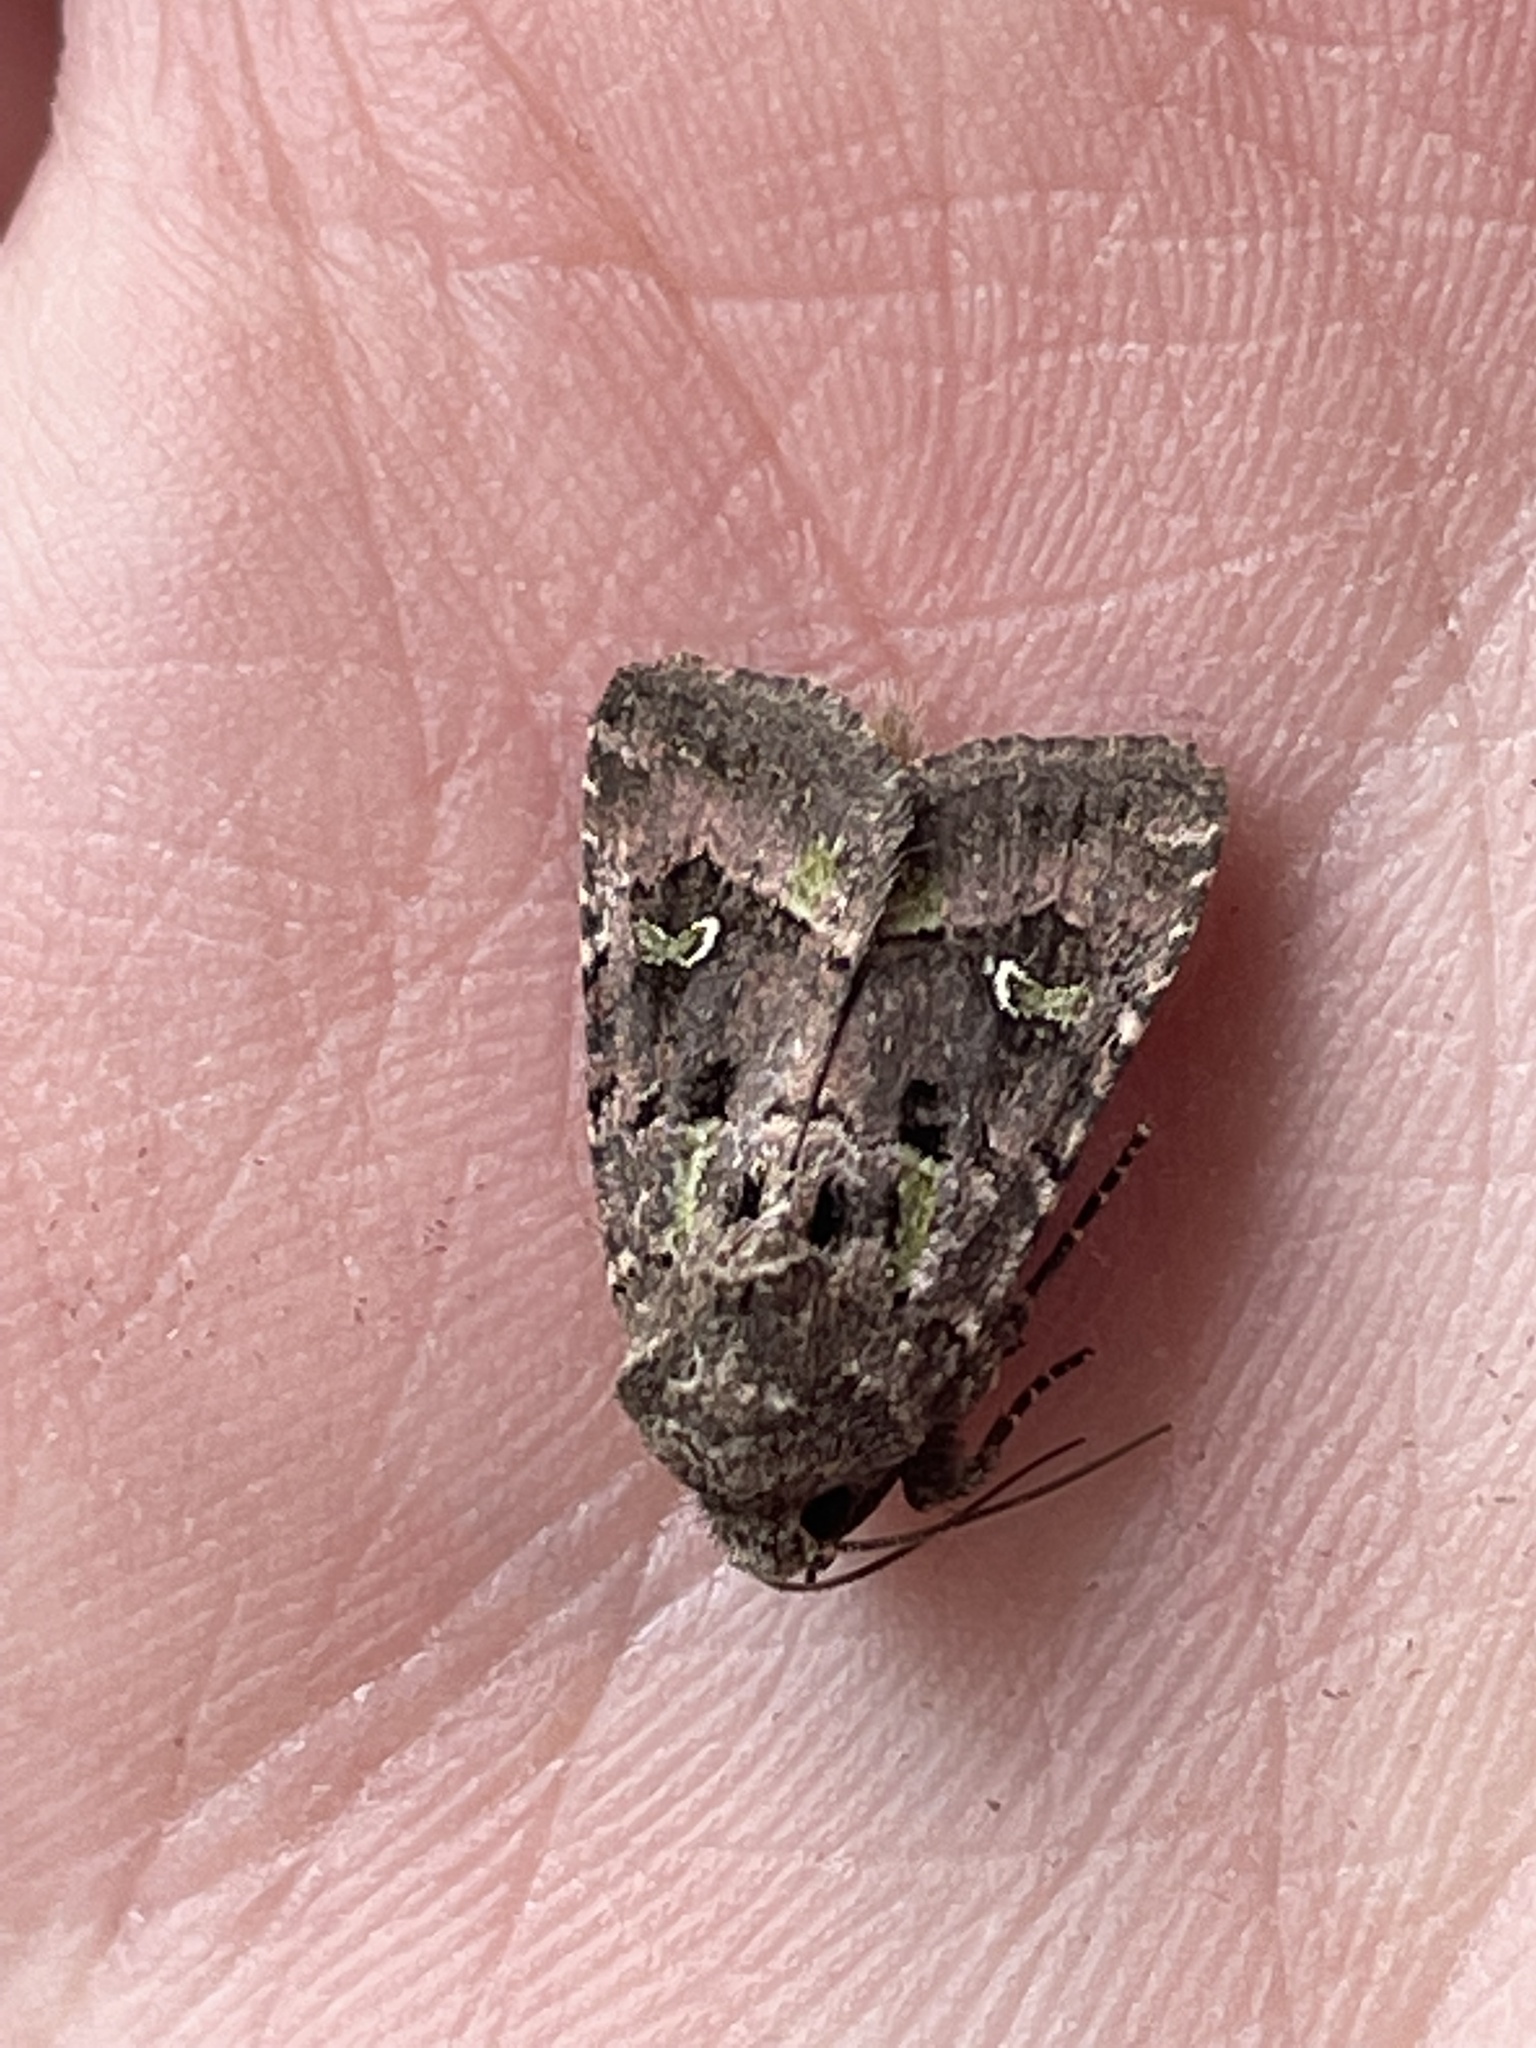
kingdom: Animalia
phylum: Arthropoda
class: Insecta
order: Lepidoptera
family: Noctuidae
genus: Lacinipolia
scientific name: Lacinipolia renigera
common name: Kidney-spotted minor
